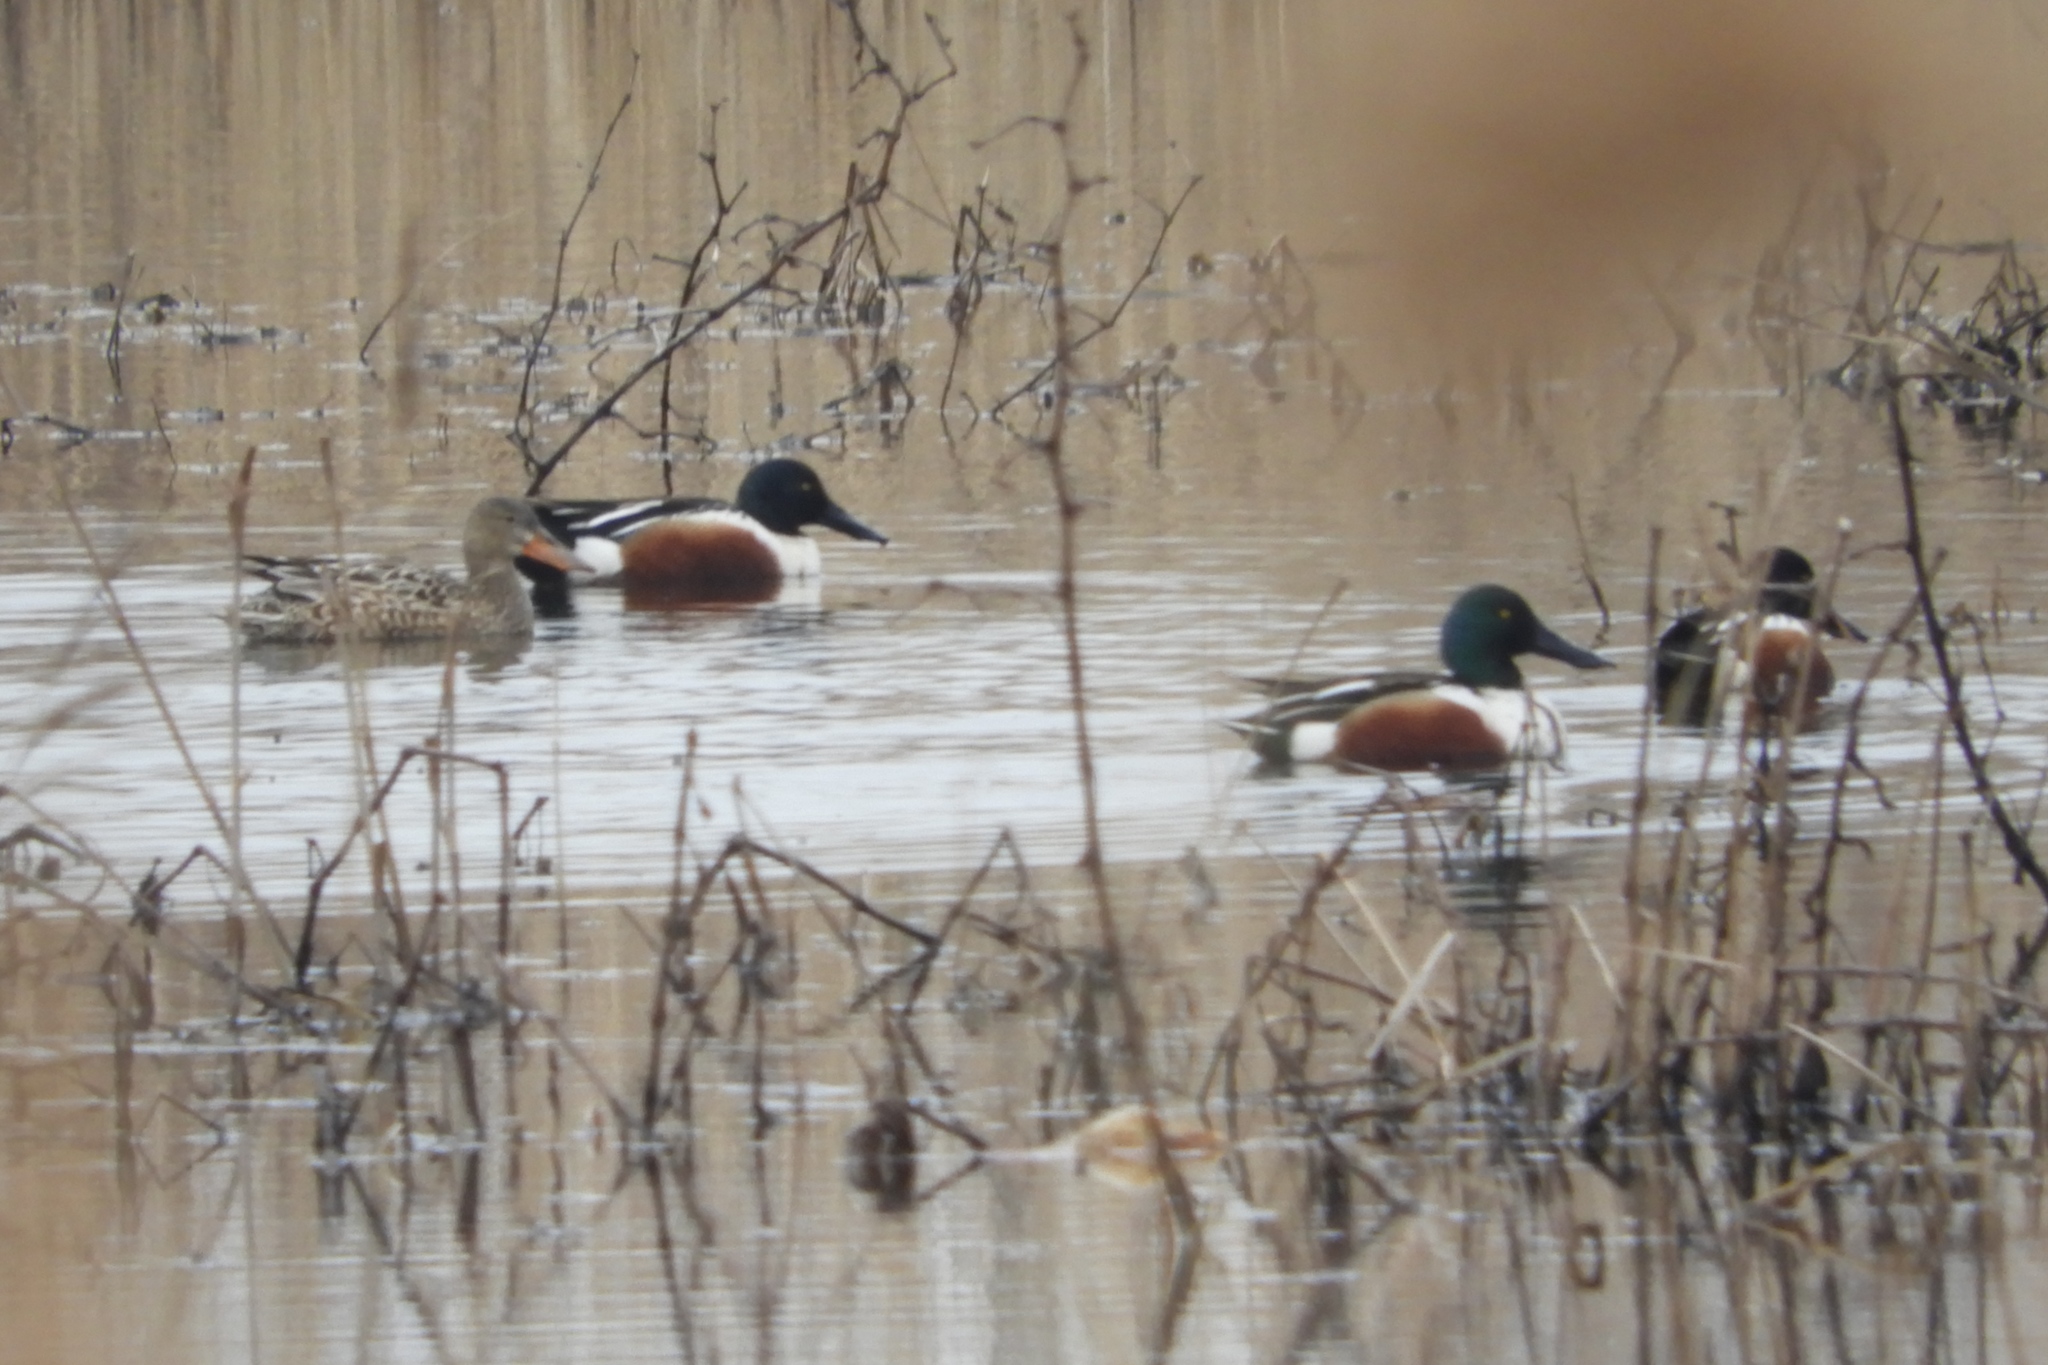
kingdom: Animalia
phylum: Chordata
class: Aves
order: Anseriformes
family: Anatidae
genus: Spatula
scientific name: Spatula clypeata
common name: Northern shoveler
